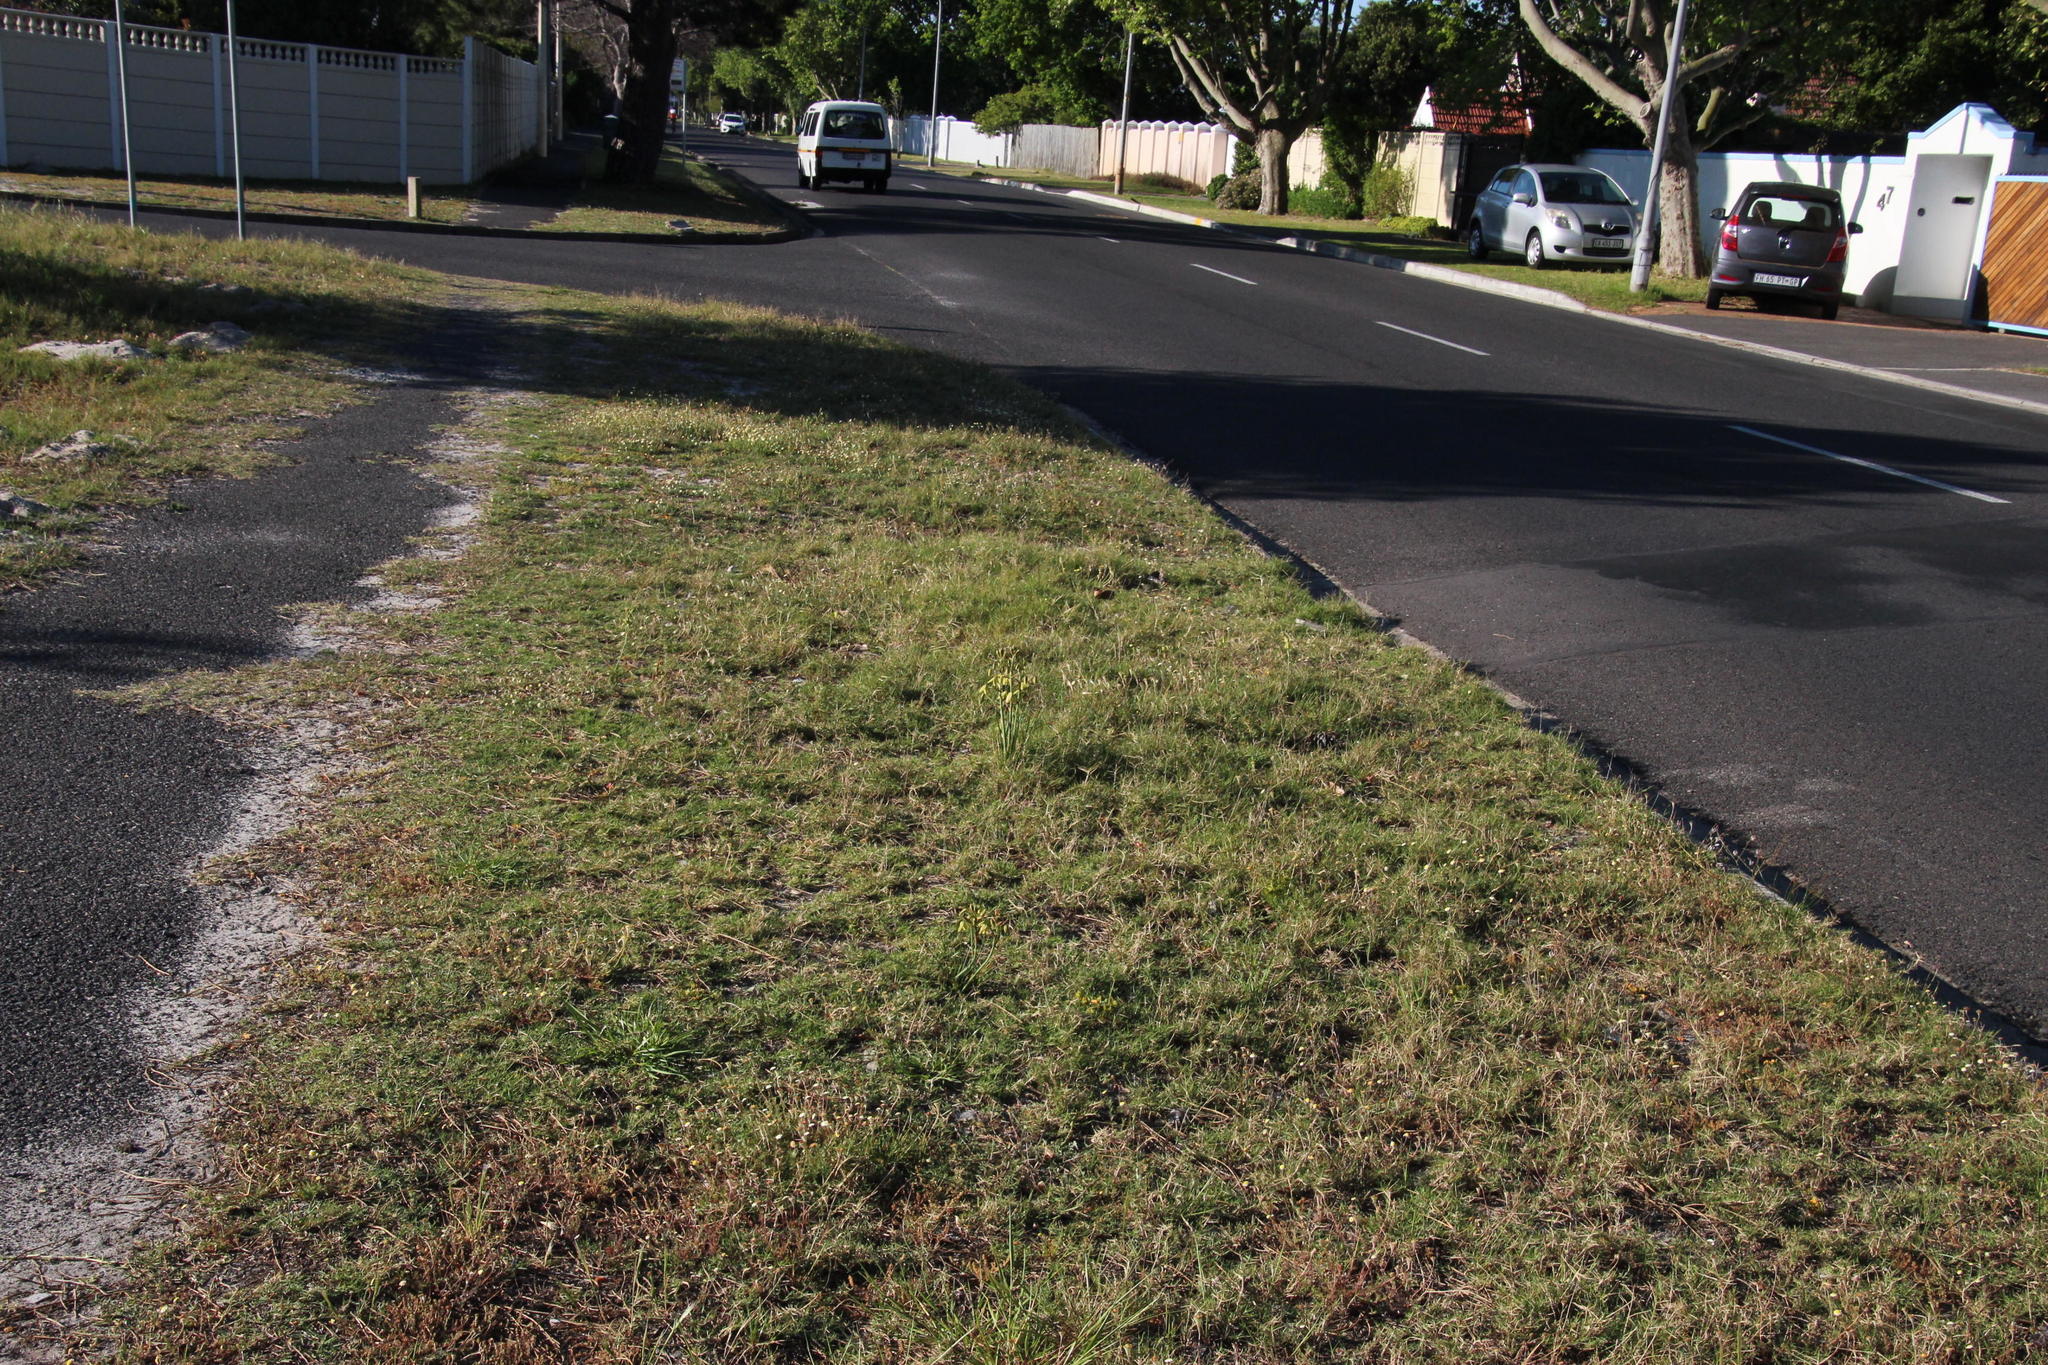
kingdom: Plantae
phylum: Tracheophyta
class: Liliopsida
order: Asparagales
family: Asparagaceae
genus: Albuca
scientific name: Albuca flaccida
